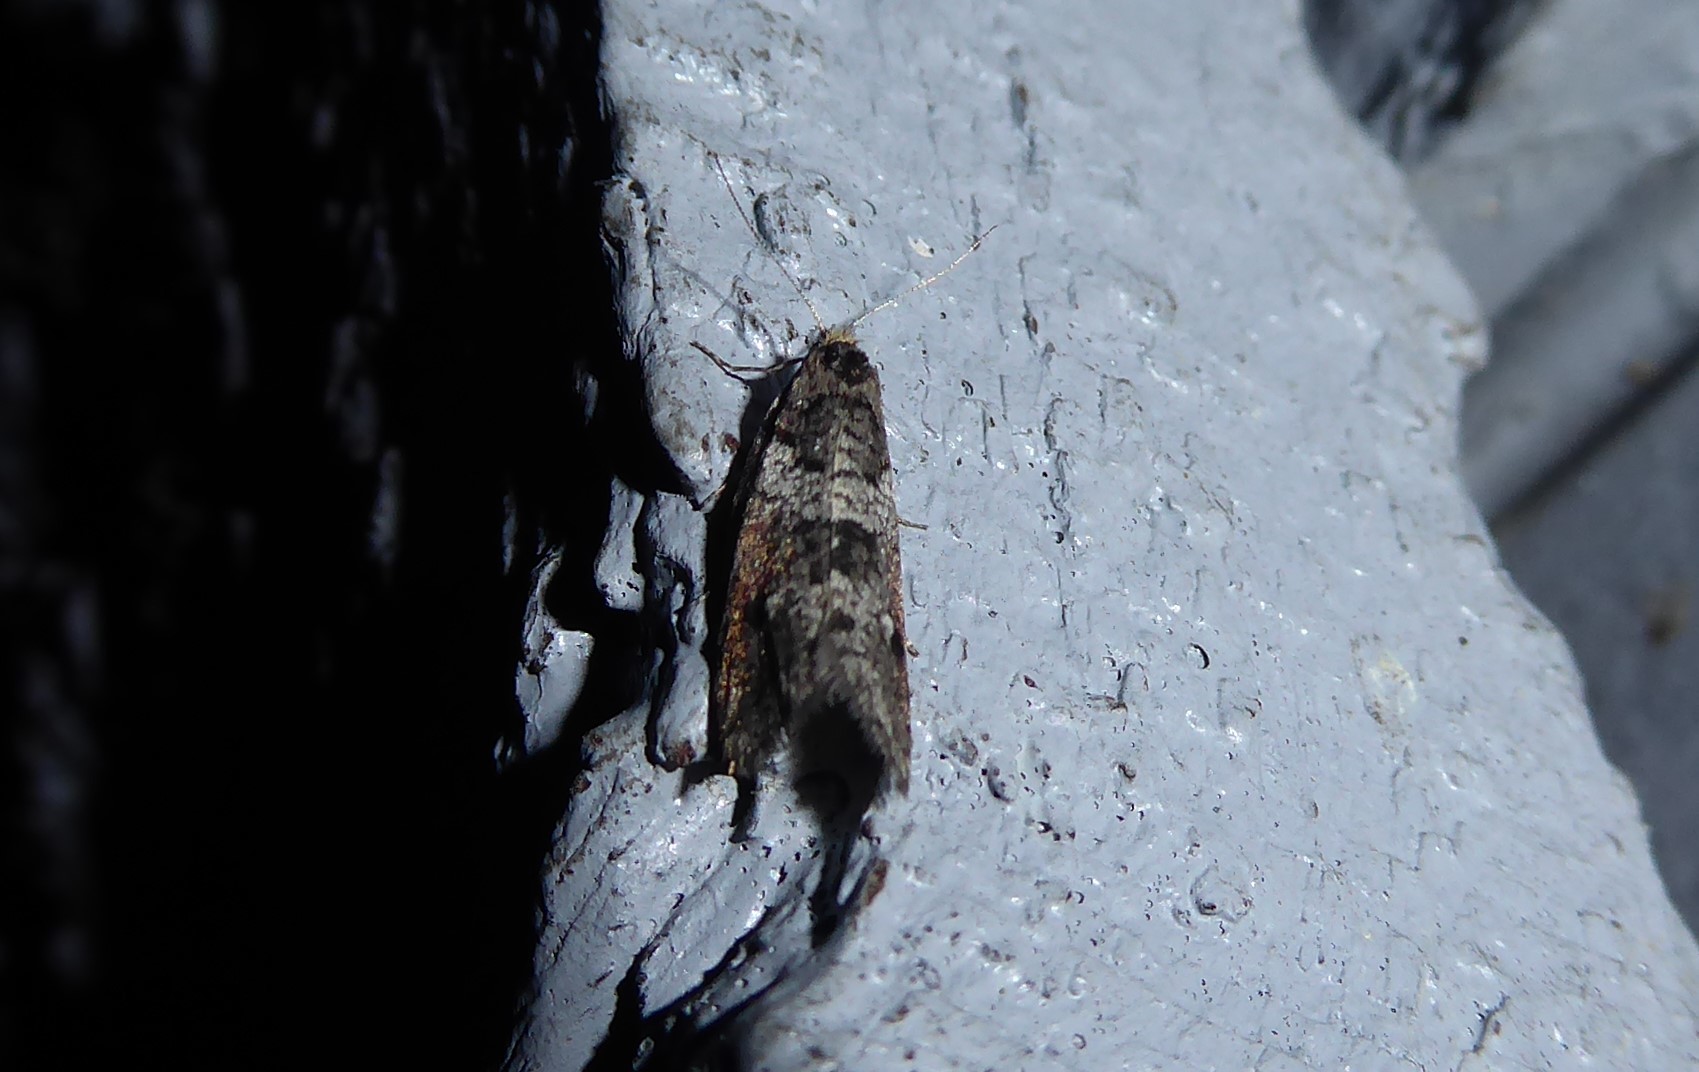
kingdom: Animalia
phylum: Arthropoda
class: Insecta
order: Lepidoptera
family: Psychidae
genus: Lepidoscia
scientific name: Lepidoscia heliochares
